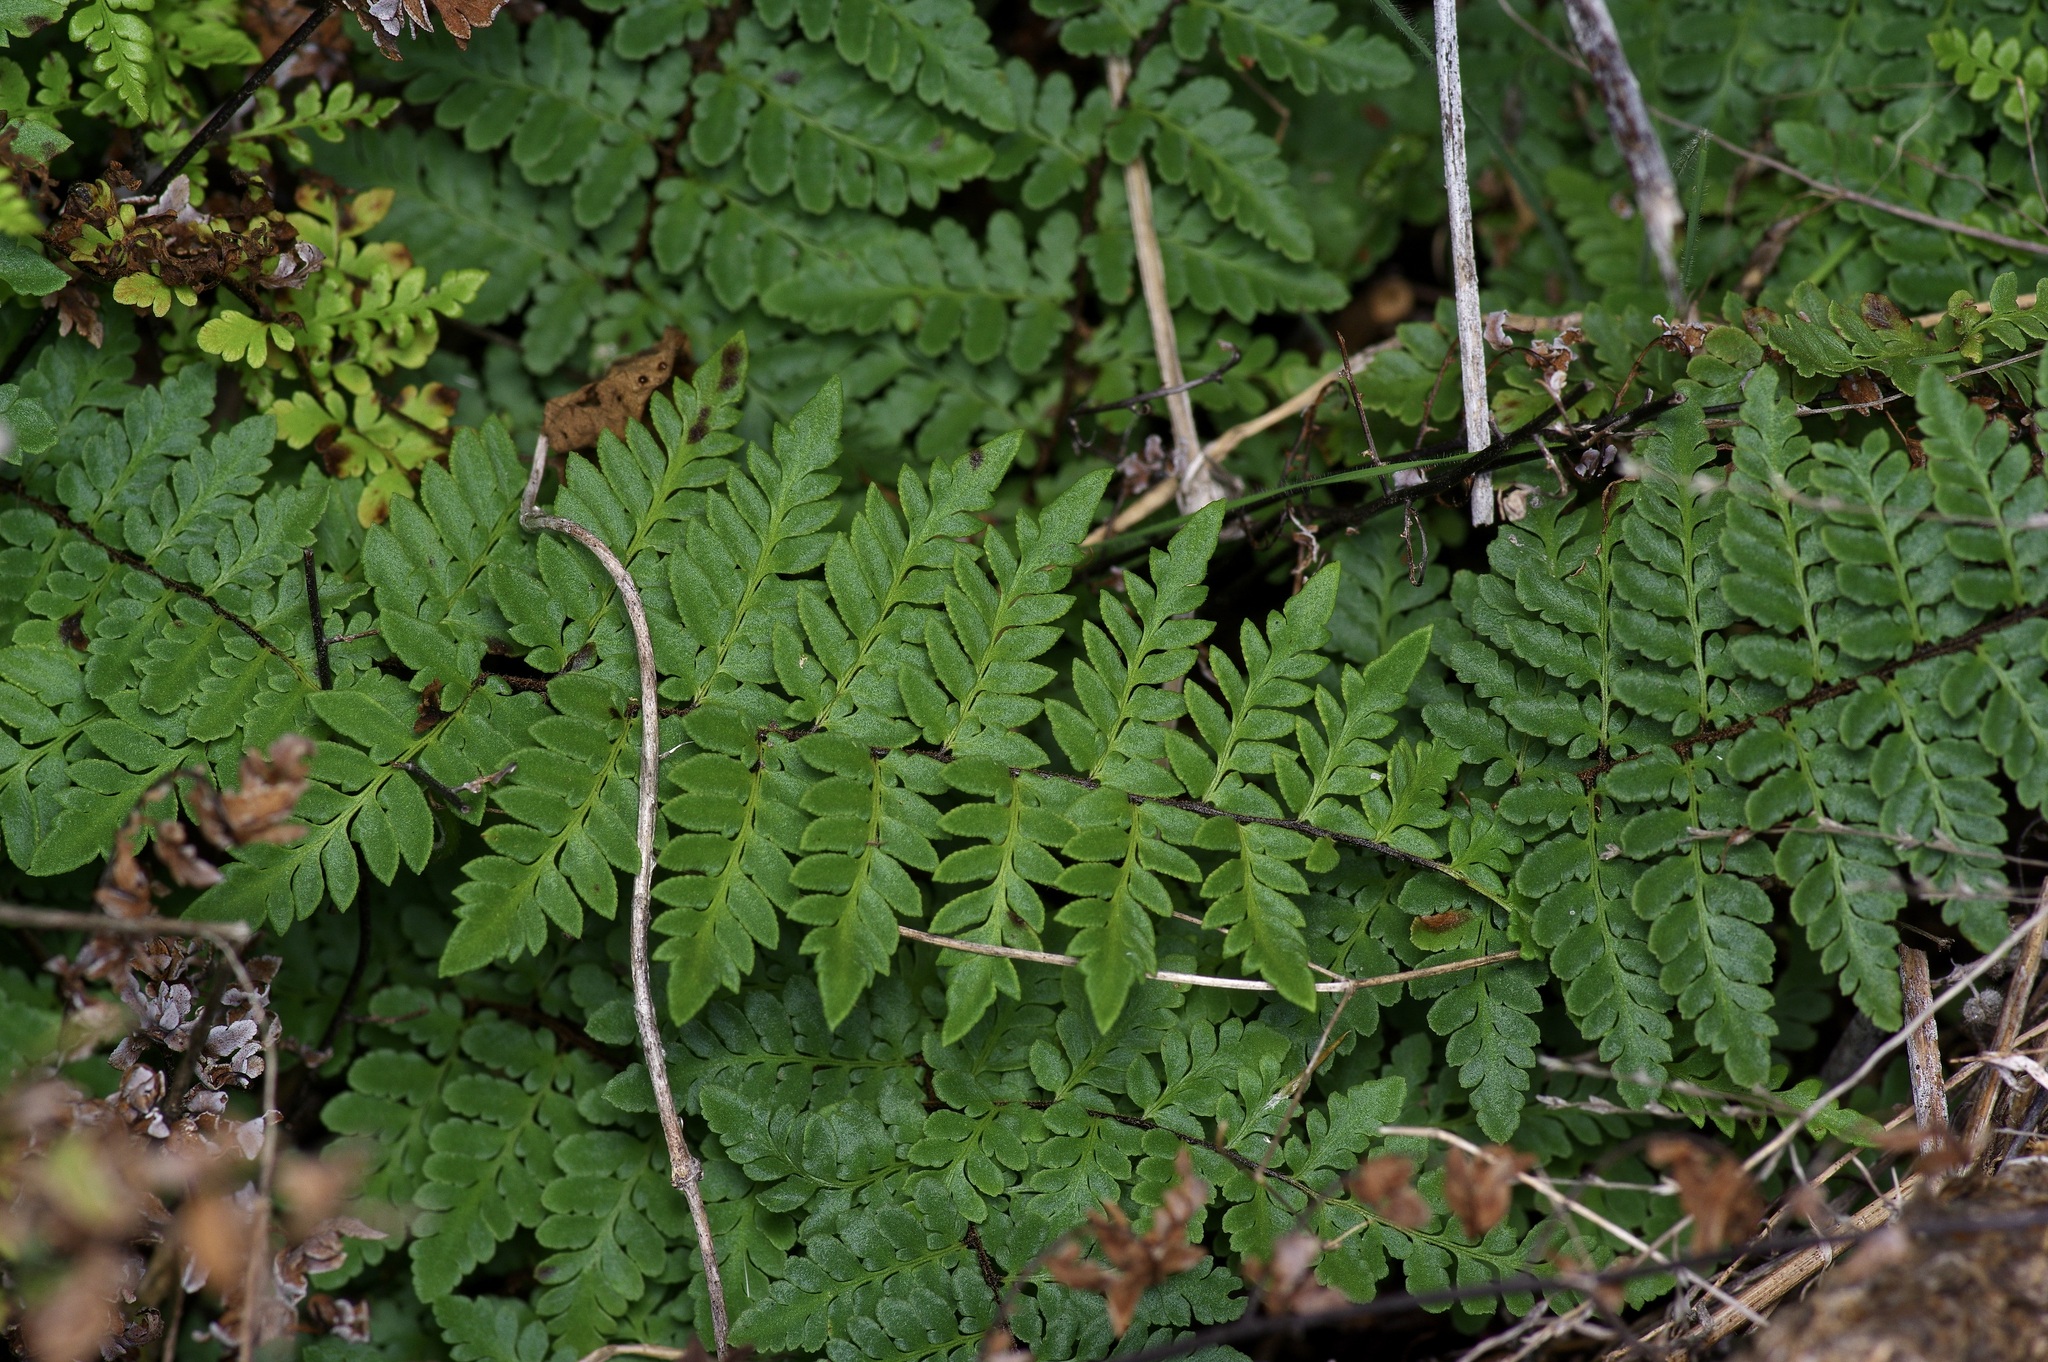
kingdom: Plantae
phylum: Tracheophyta
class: Polypodiopsida
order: Polypodiales
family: Pteridaceae
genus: Myriopteris
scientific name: Myriopteris alabamensis
